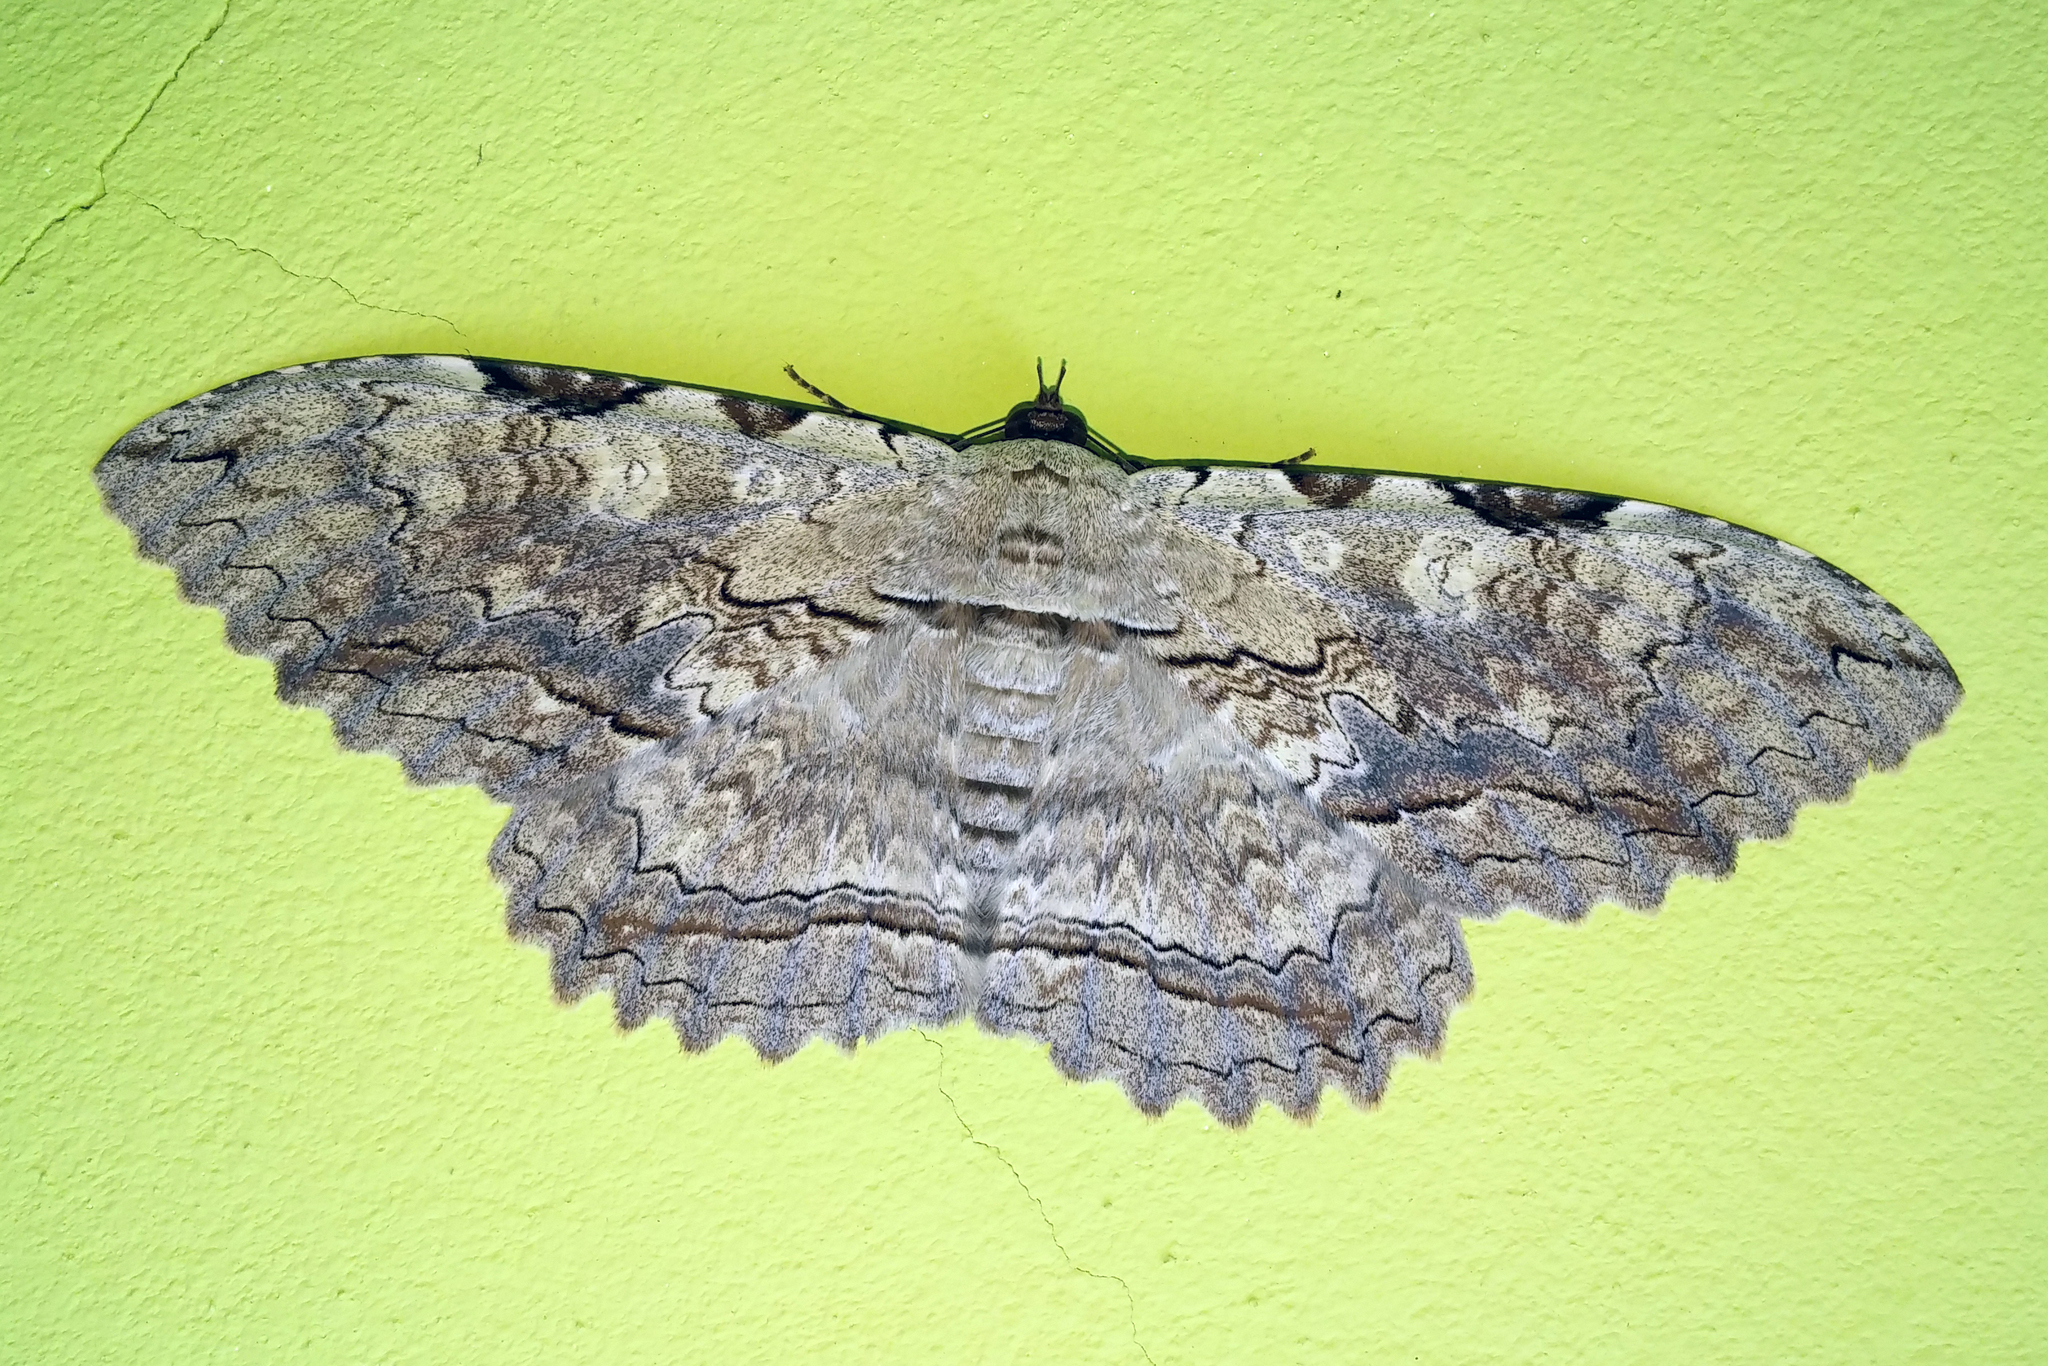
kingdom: Animalia
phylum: Arthropoda
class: Insecta
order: Lepidoptera
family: Erebidae
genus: Thysania
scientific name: Thysania zenobia
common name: Owl moth
